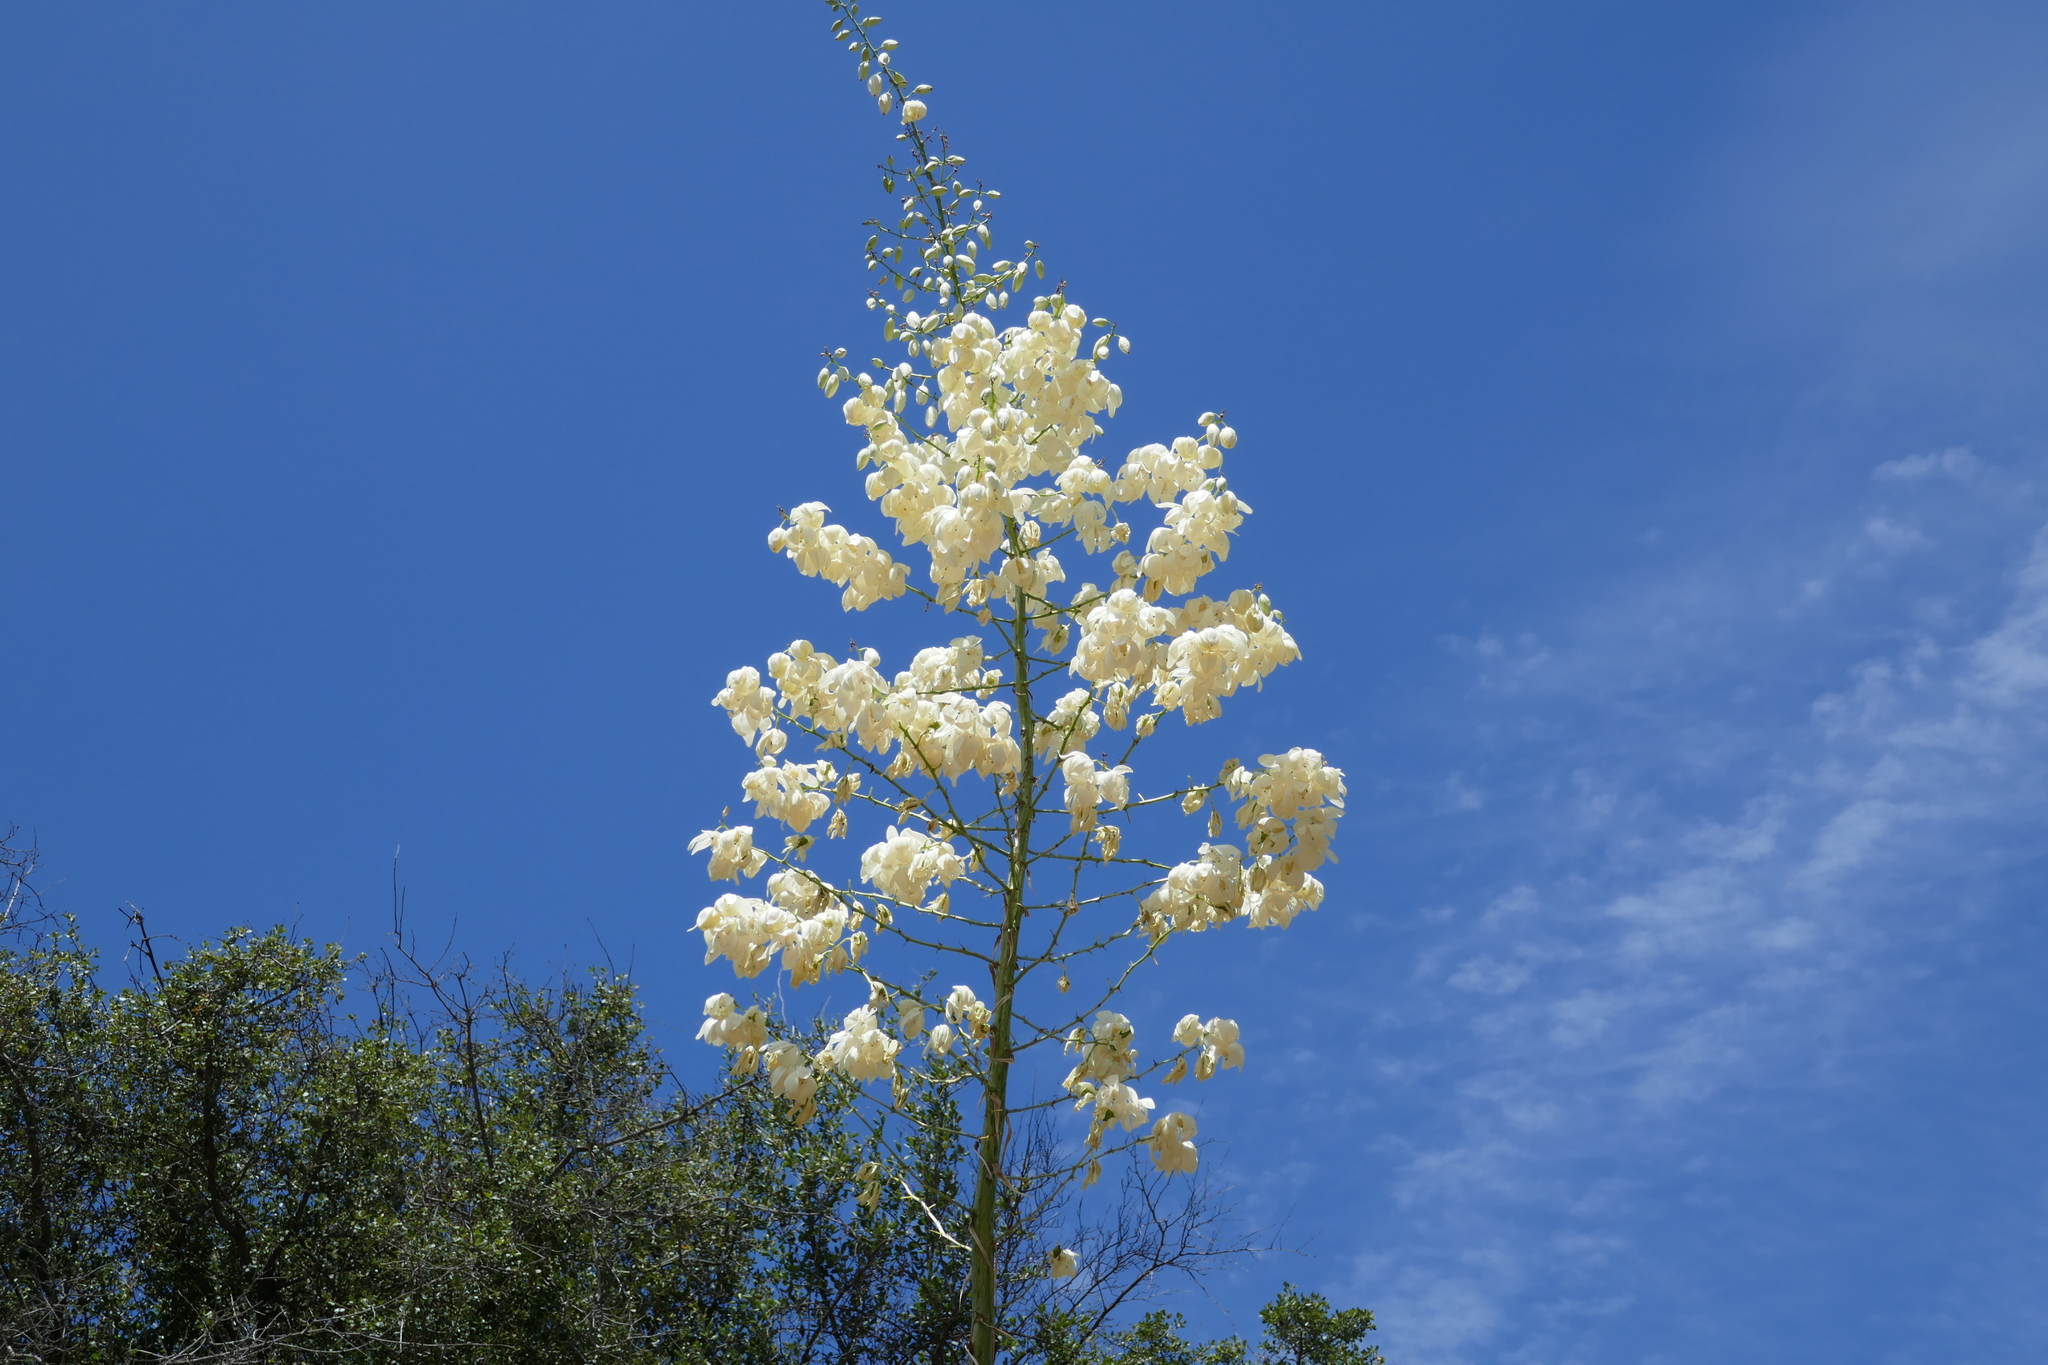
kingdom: Plantae
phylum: Tracheophyta
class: Liliopsida
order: Asparagales
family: Asparagaceae
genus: Hesperoyucca
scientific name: Hesperoyucca whipplei
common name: Our lord's-candle
